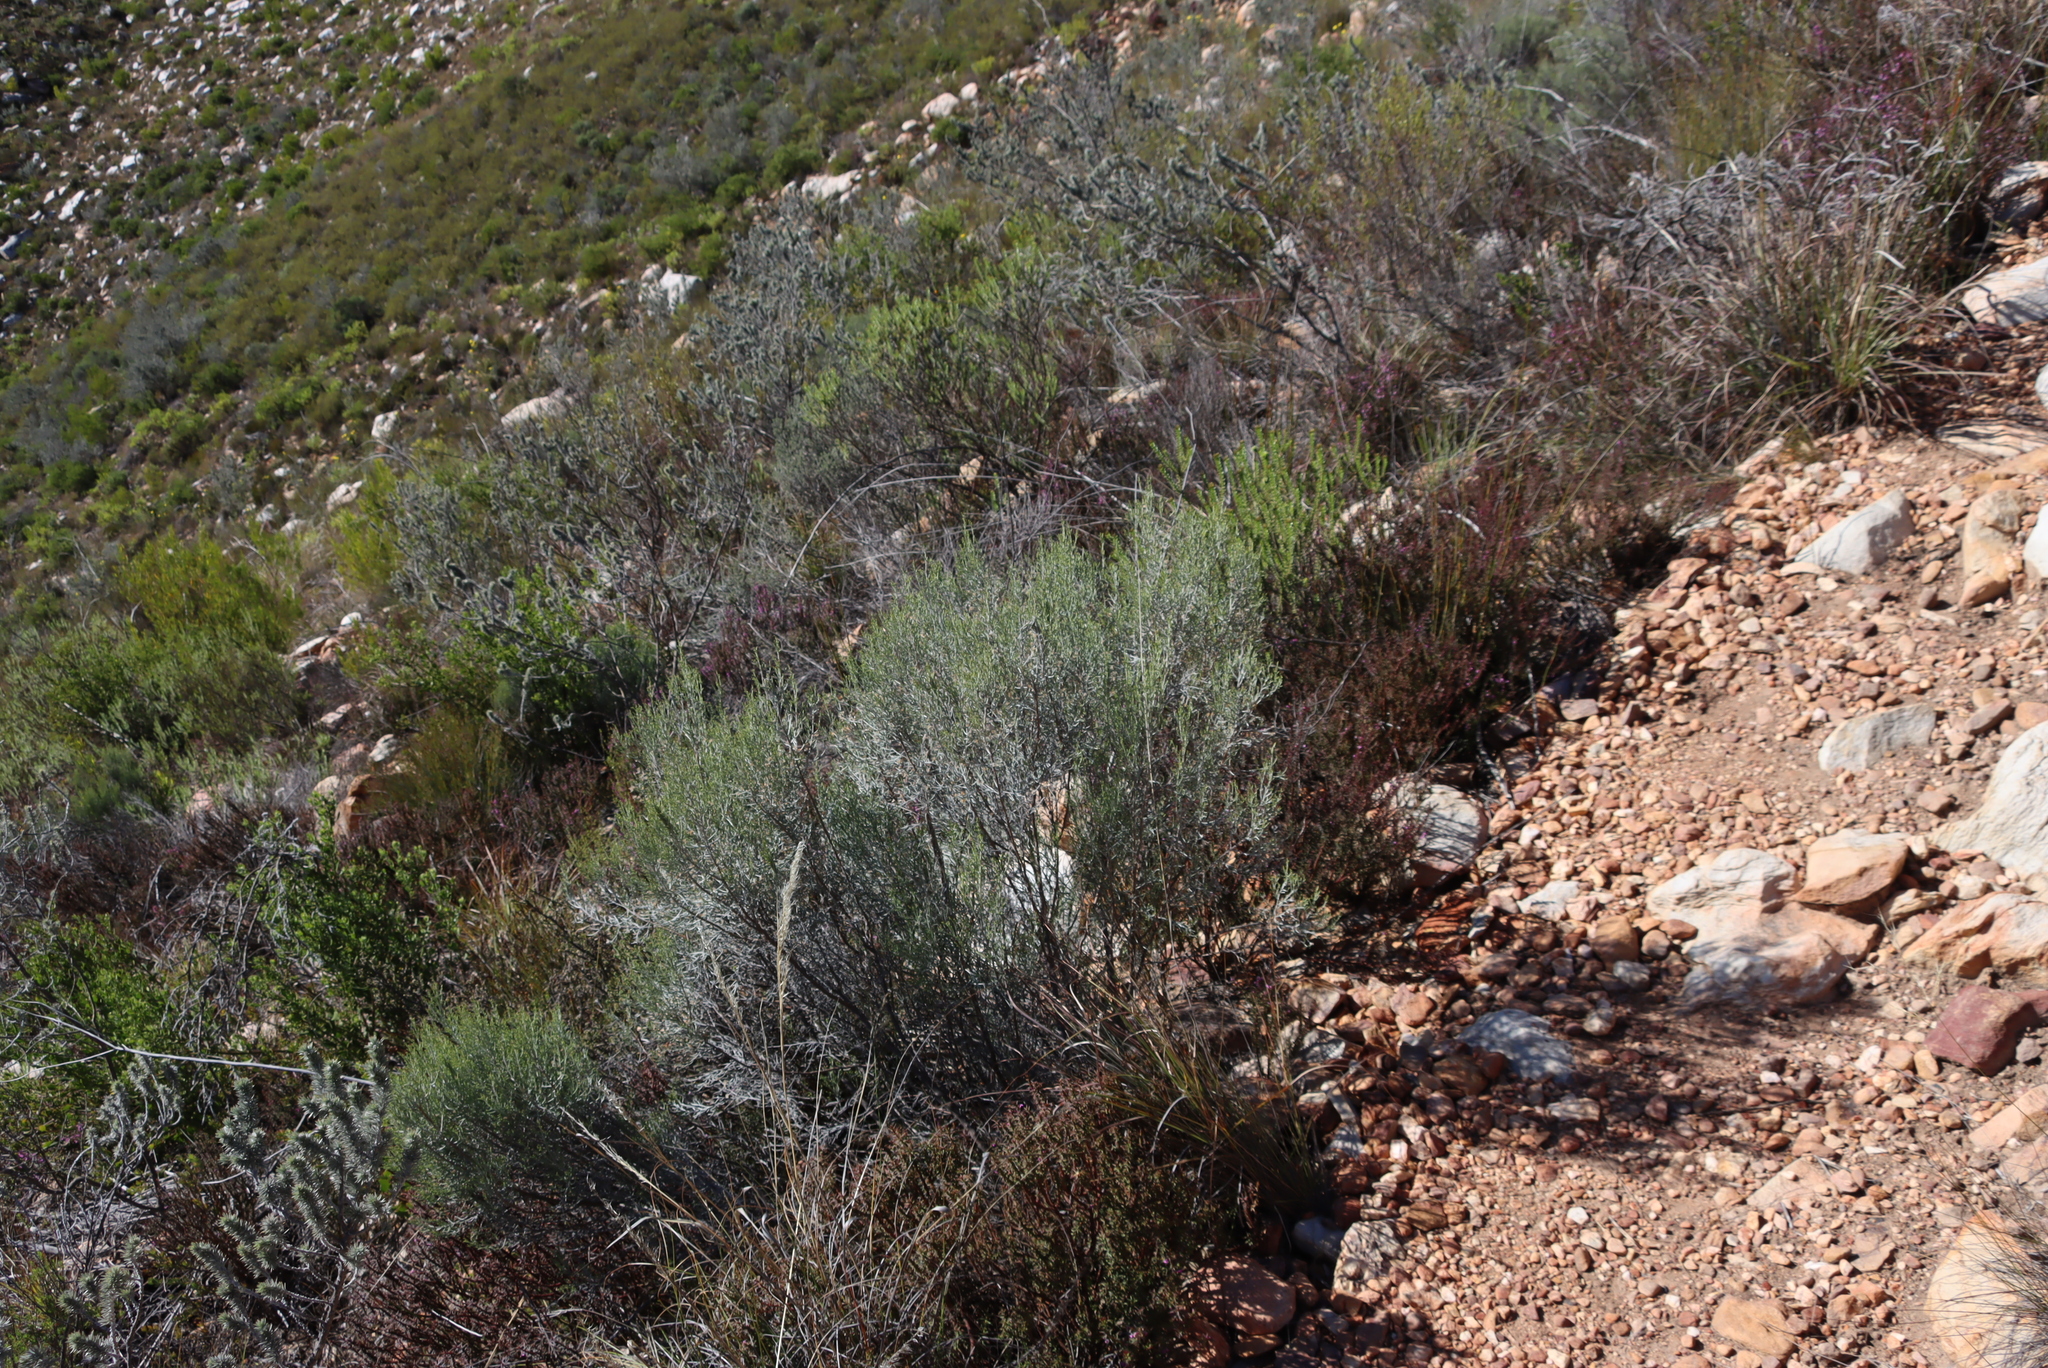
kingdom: Plantae
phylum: Tracheophyta
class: Magnoliopsida
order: Asterales
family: Asteraceae
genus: Dicerothamnus
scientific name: Dicerothamnus rhinocerotis
